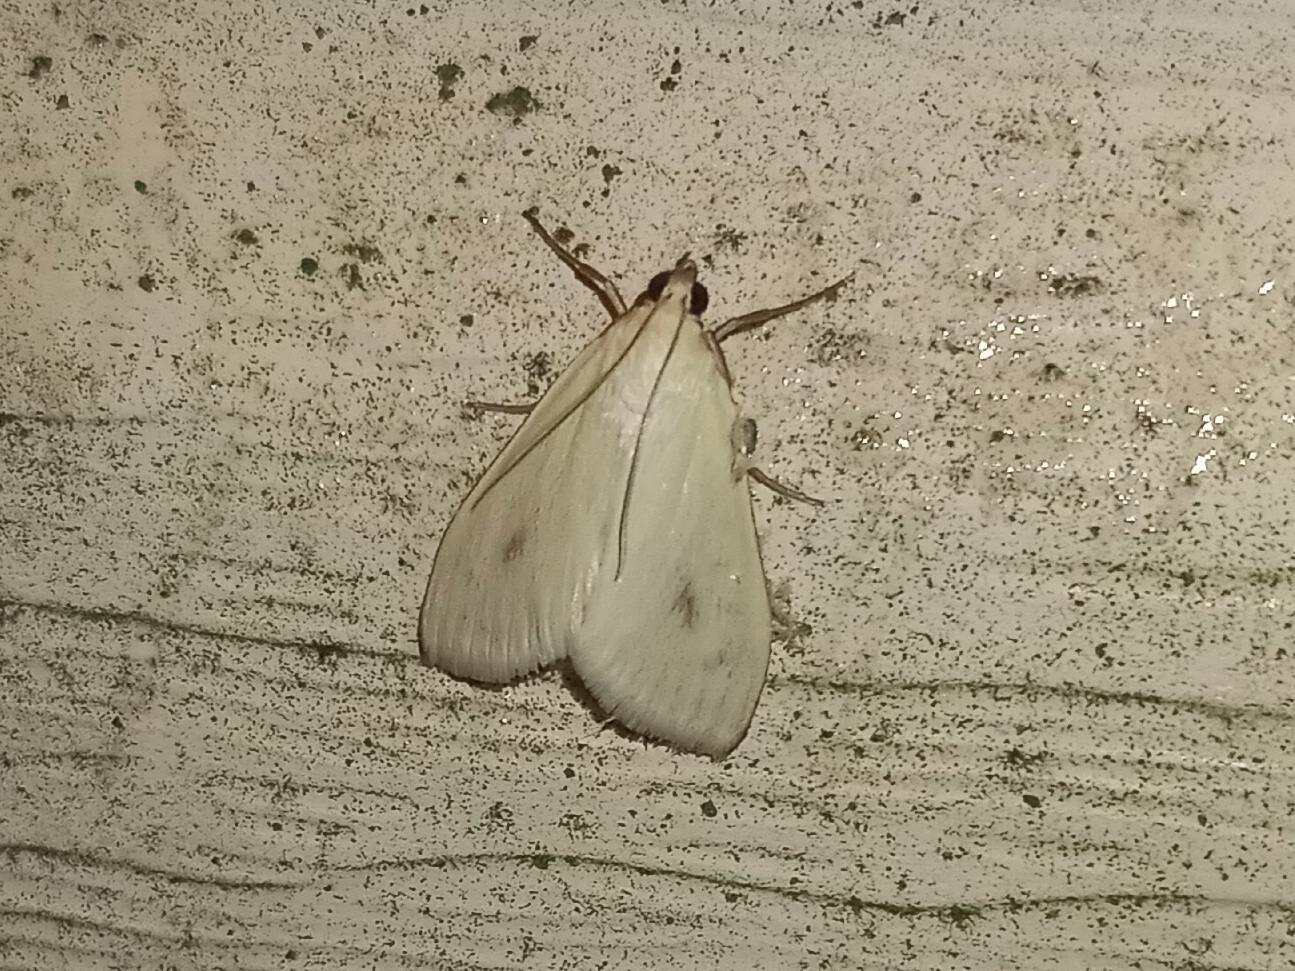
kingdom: Animalia
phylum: Arthropoda
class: Insecta
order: Lepidoptera
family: Crambidae
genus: Sitochroa
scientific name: Sitochroa palealis
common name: Greenish-yellow sitochroa moth
